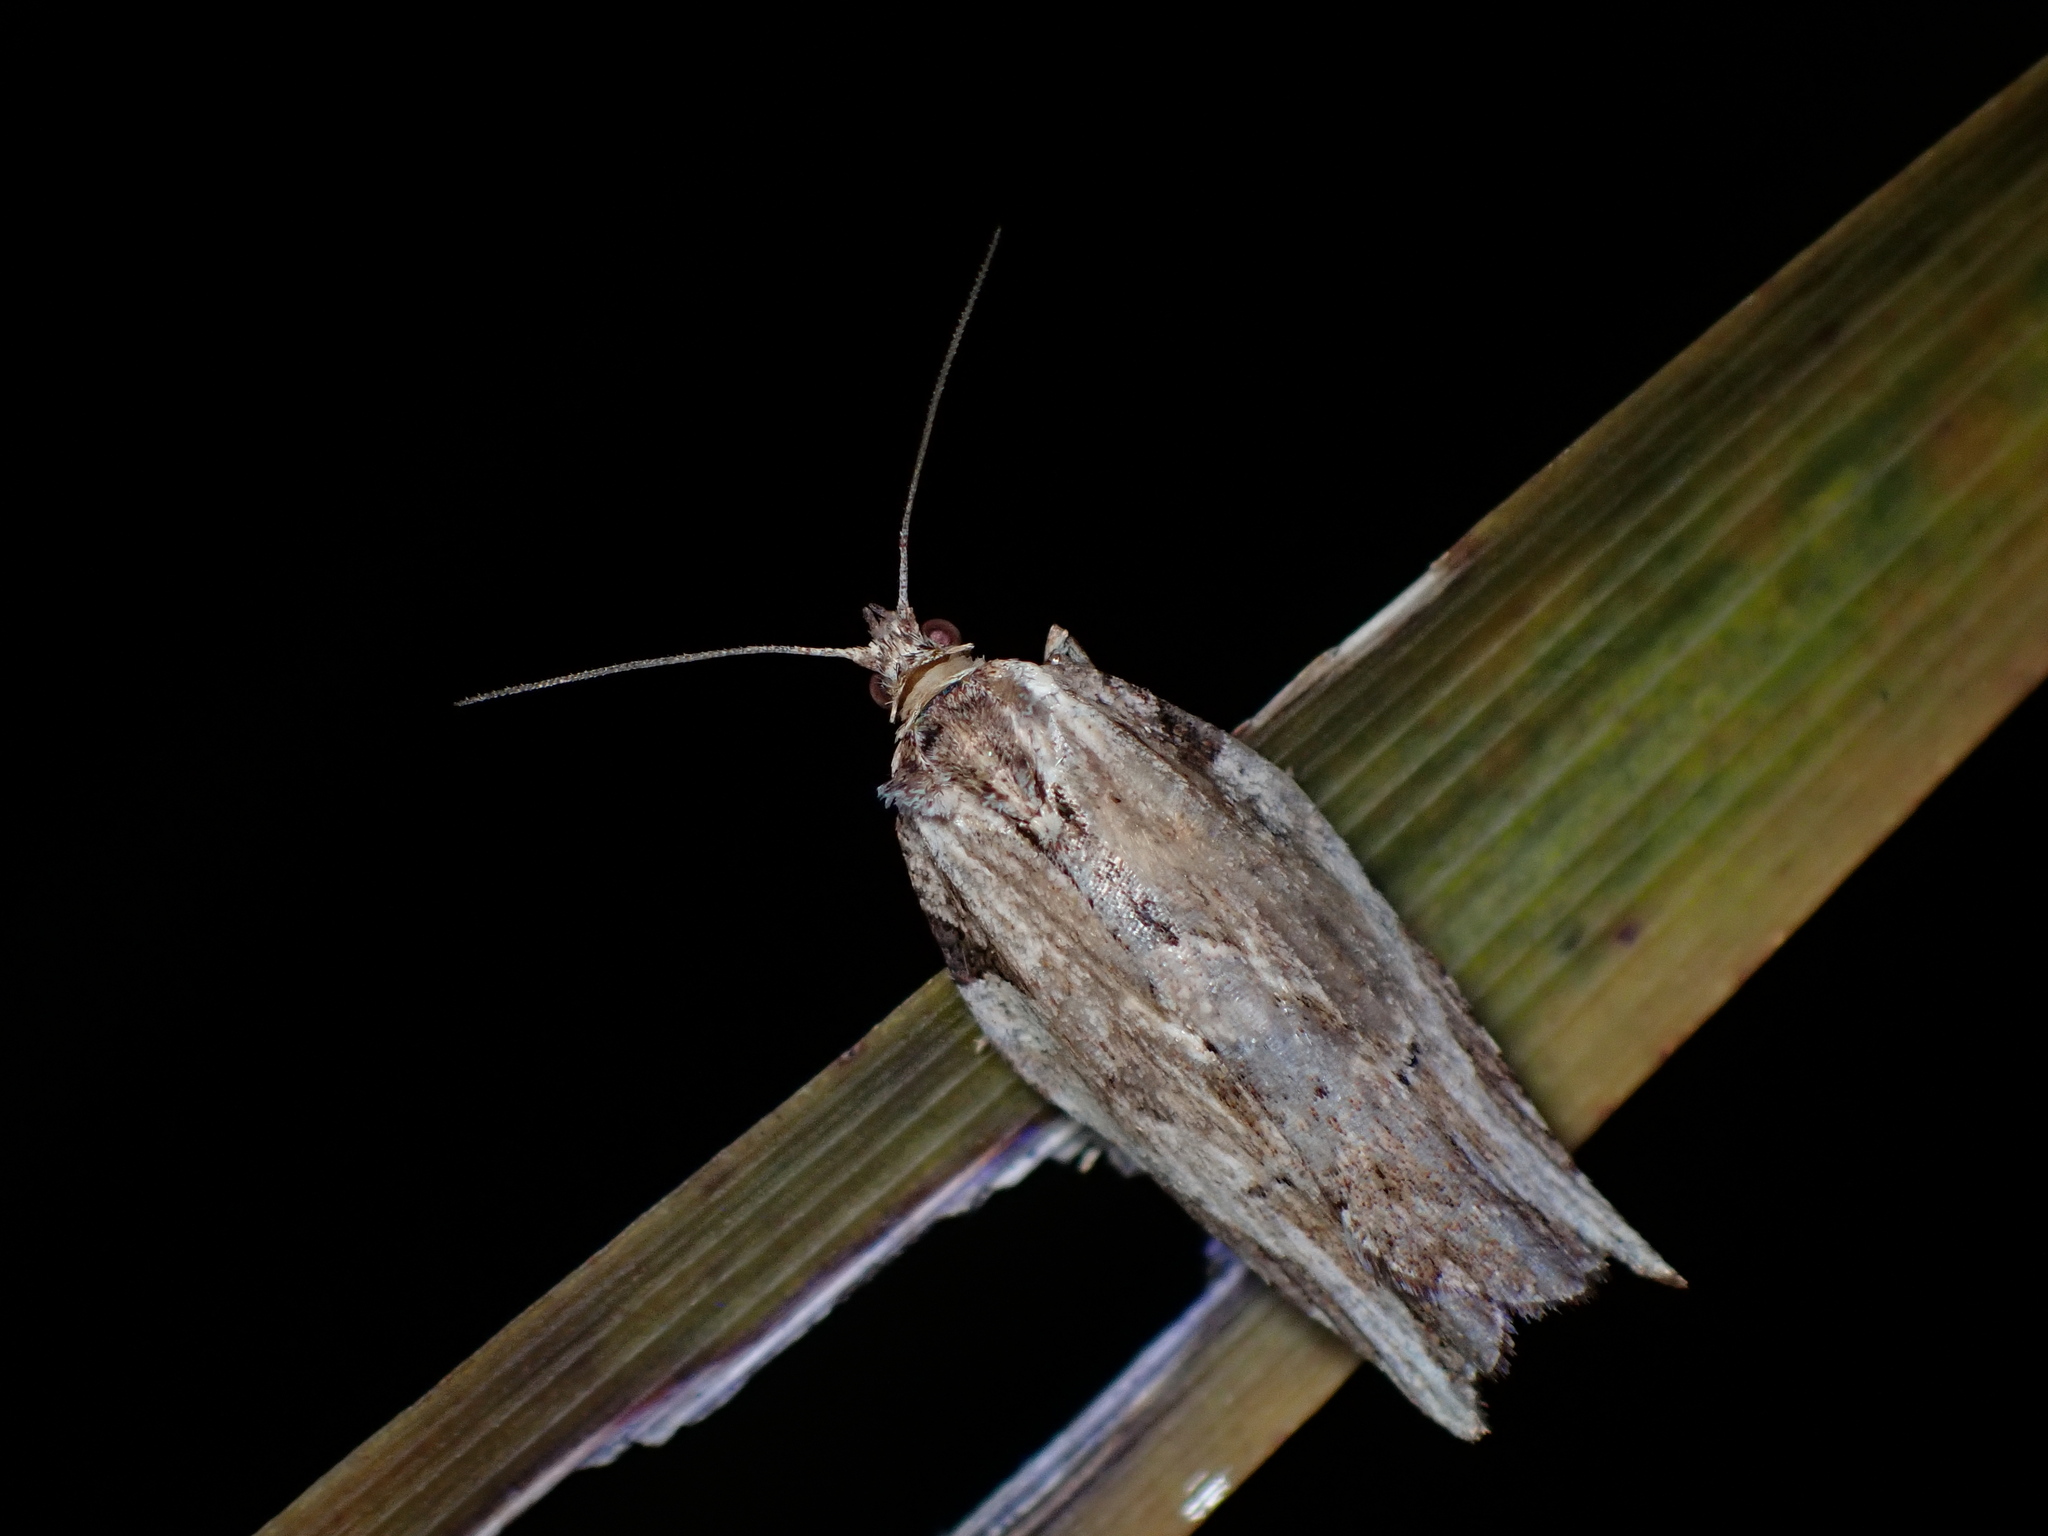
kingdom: Animalia
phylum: Arthropoda
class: Insecta
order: Lepidoptera
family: Tortricidae
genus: Epalxiphora
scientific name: Epalxiphora axenana
